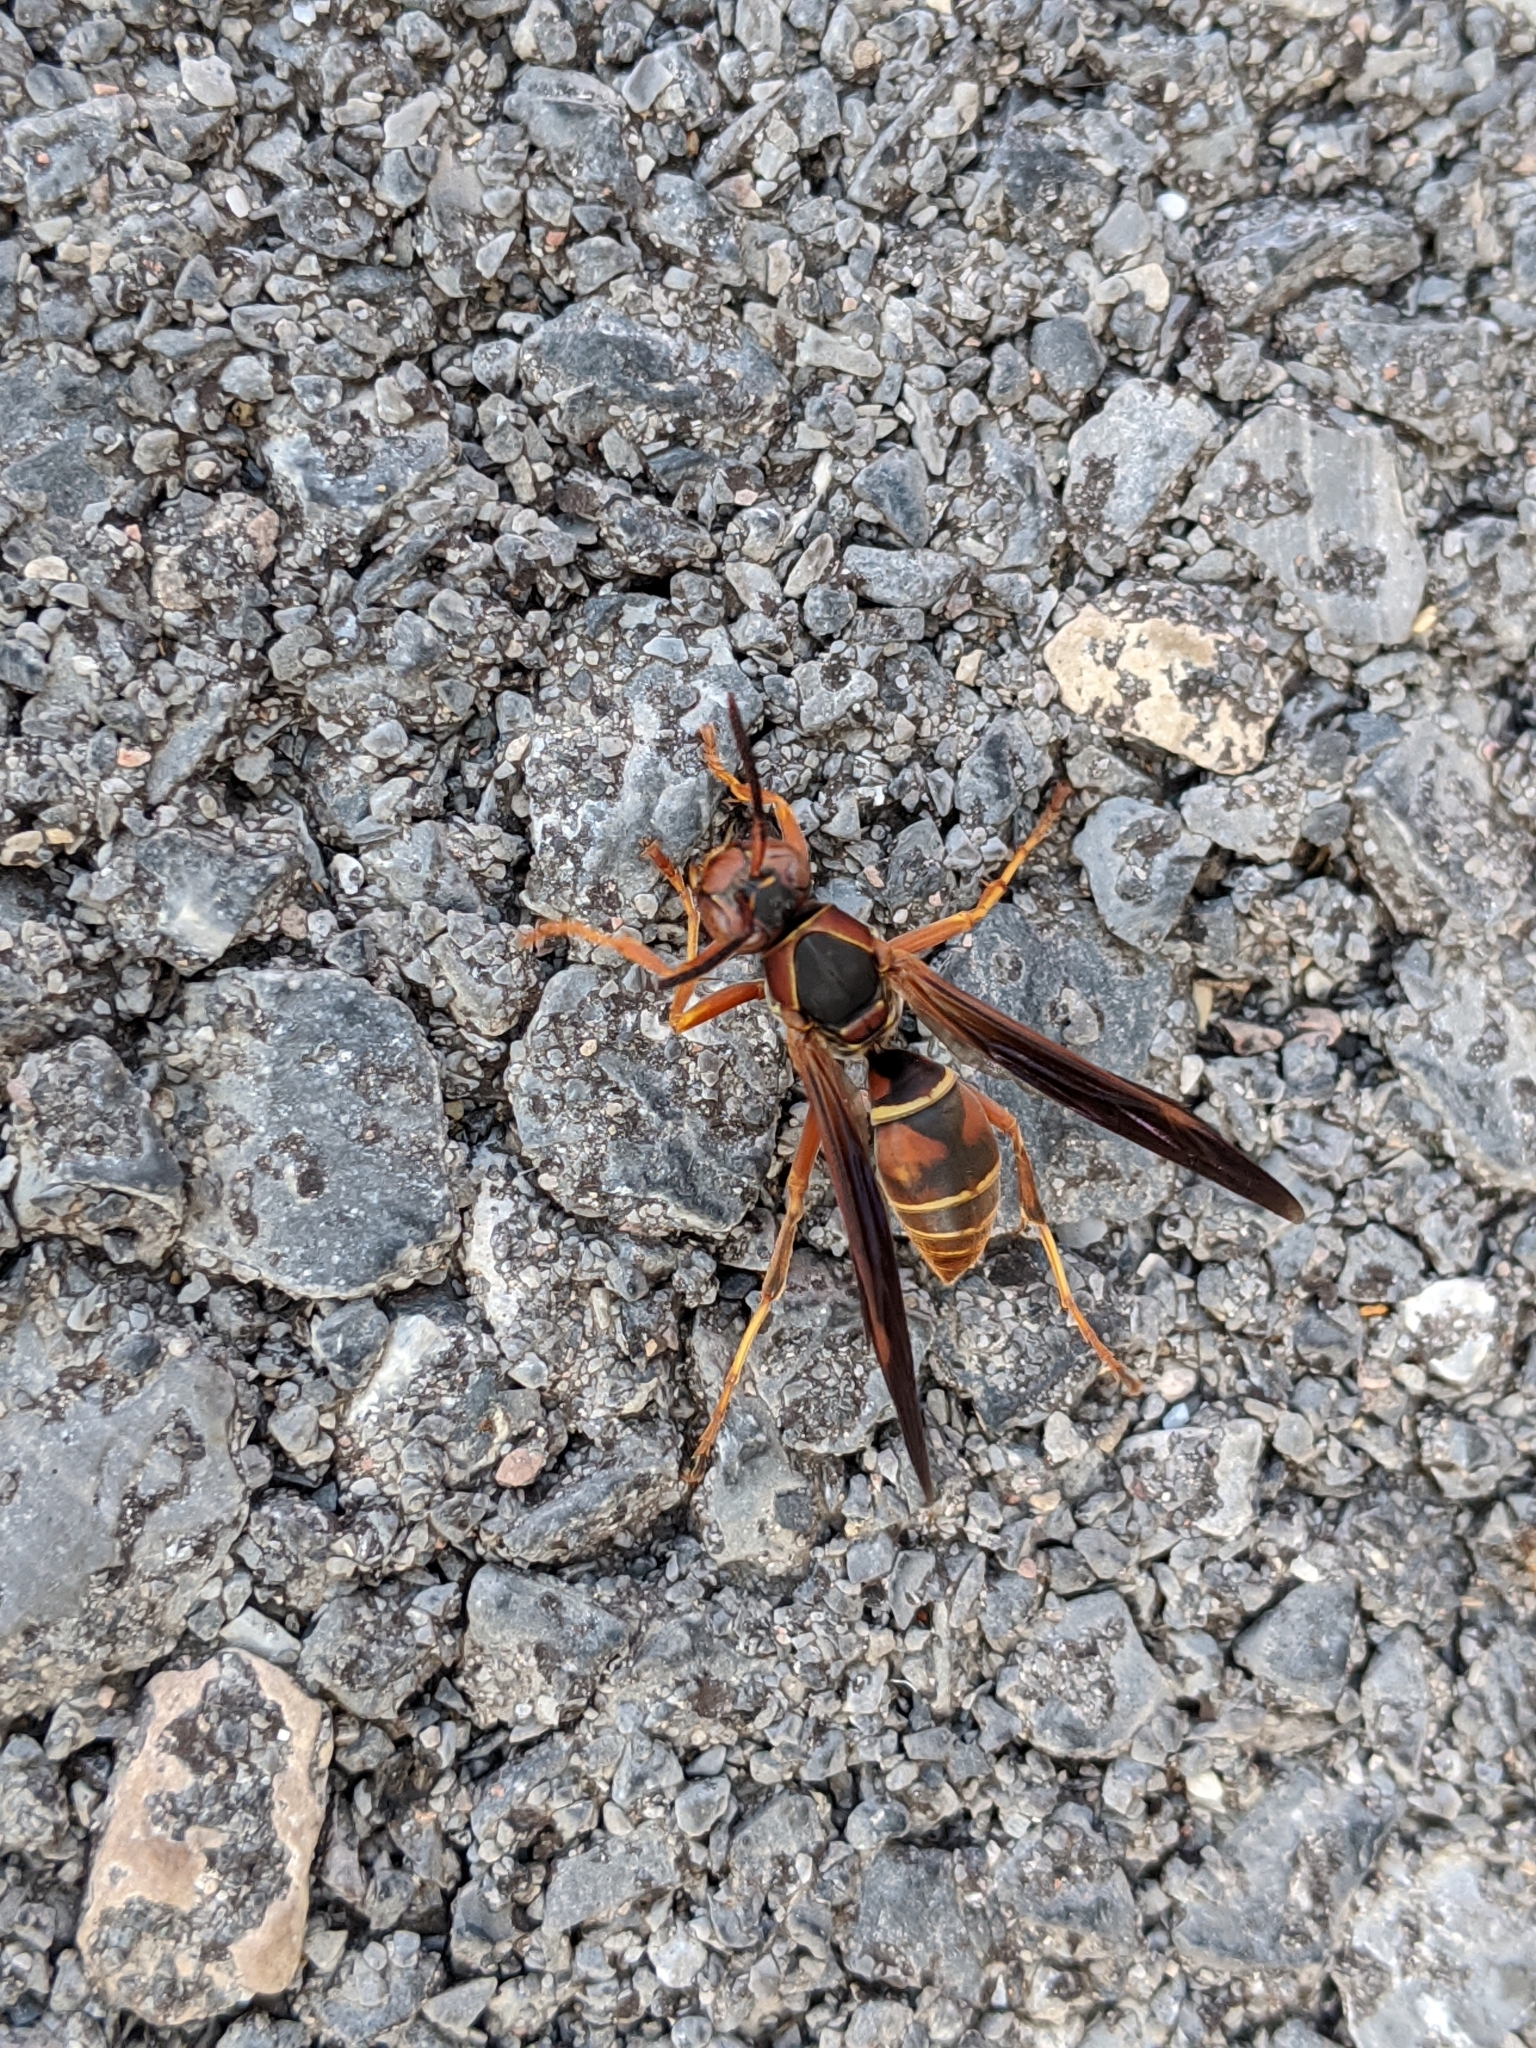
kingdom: Animalia
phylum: Arthropoda
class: Insecta
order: Hymenoptera
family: Eumenidae
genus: Polistes
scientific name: Polistes fuscatus
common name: Dark paper wasp
